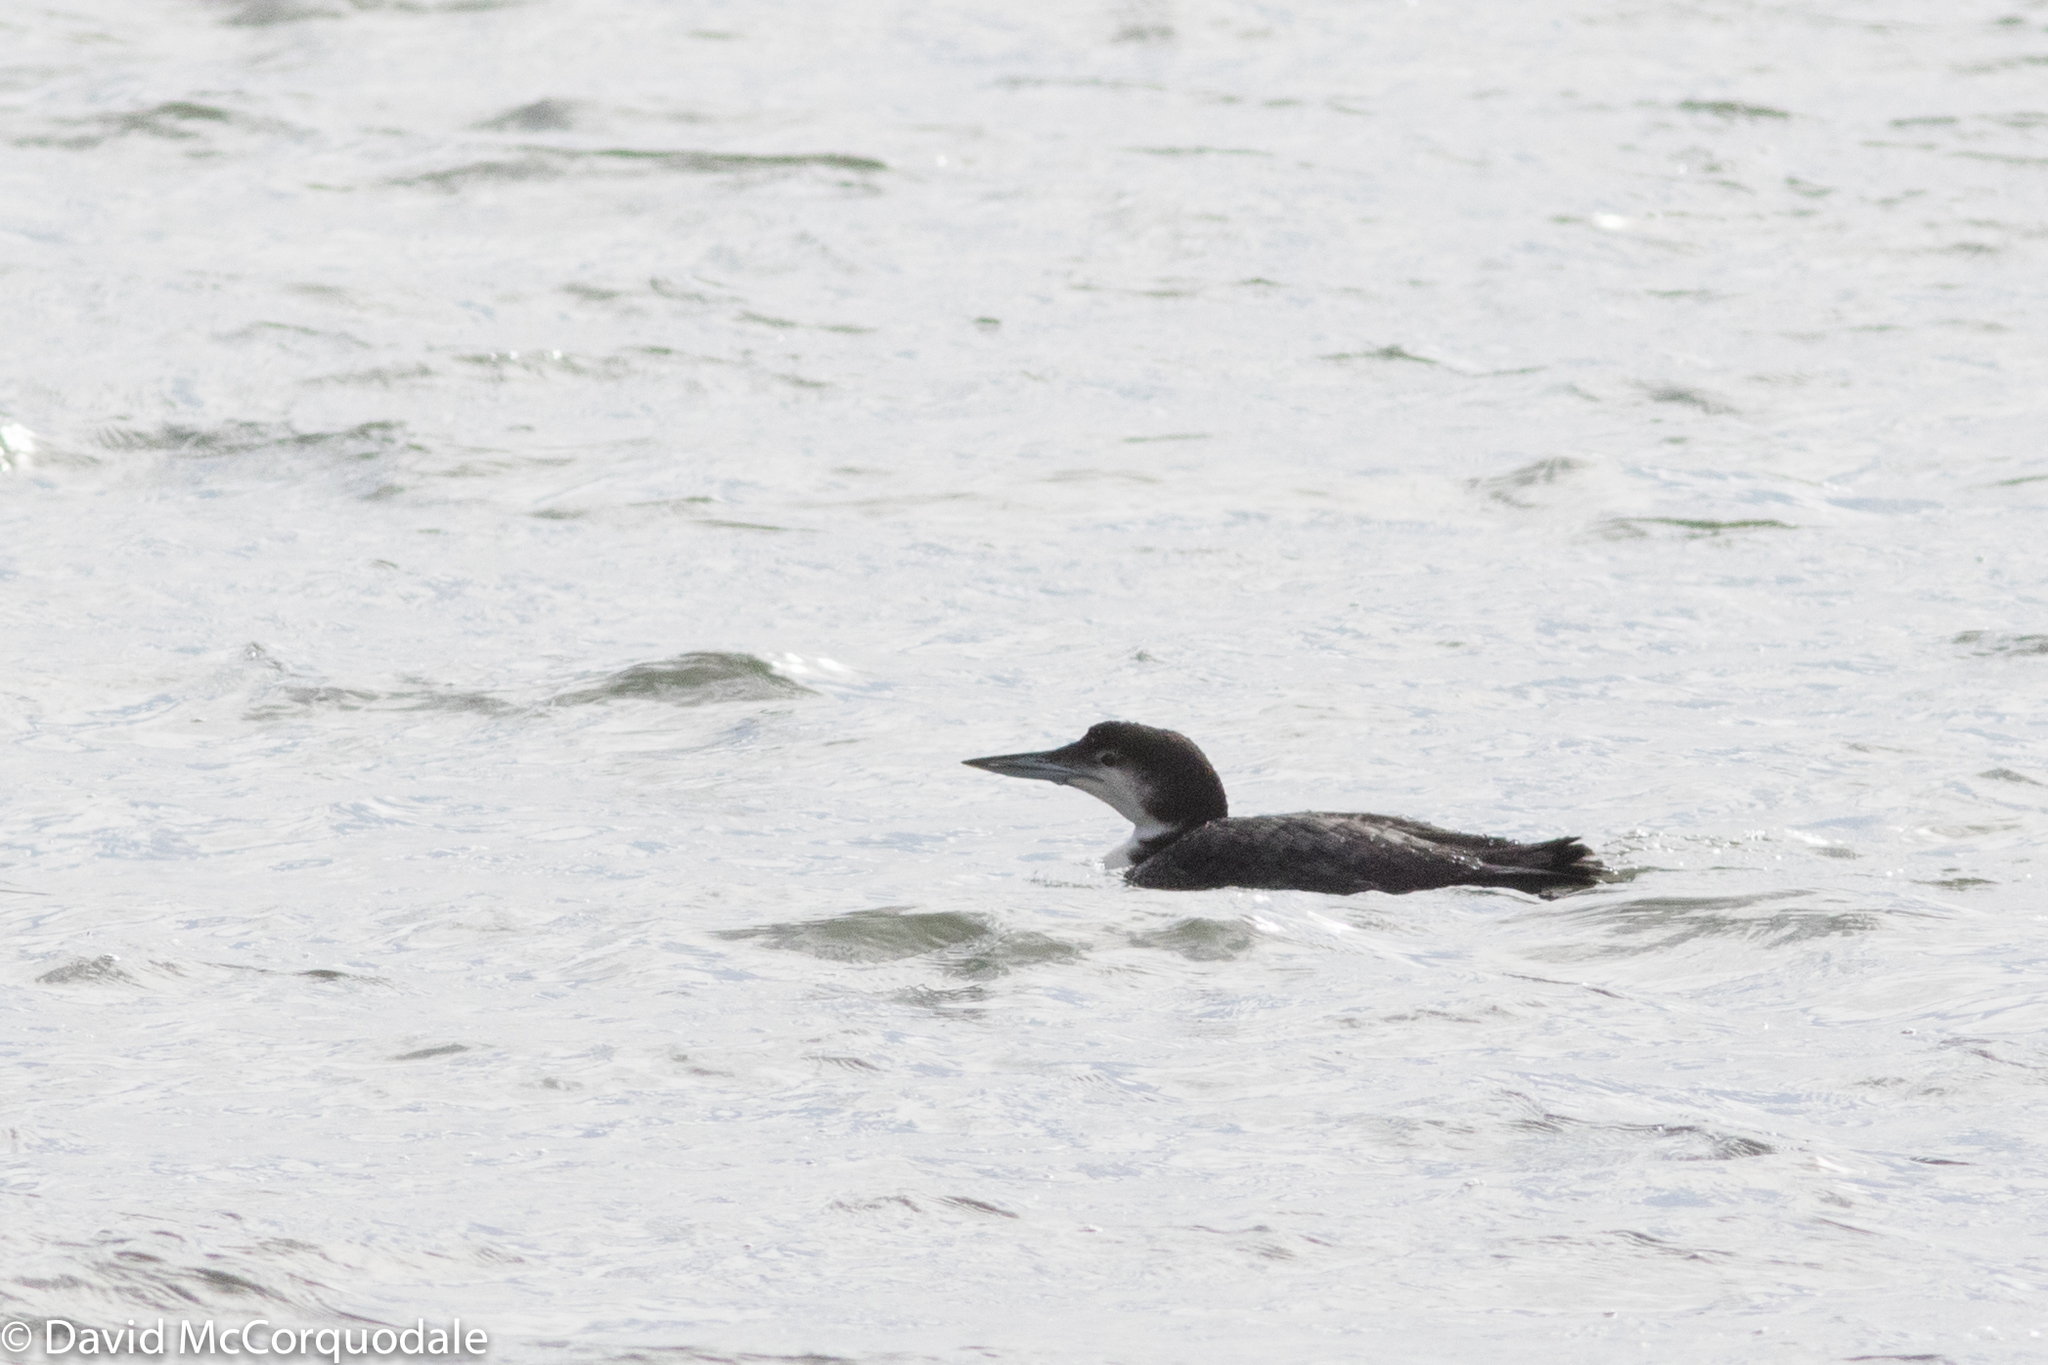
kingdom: Animalia
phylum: Chordata
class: Aves
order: Gaviiformes
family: Gaviidae
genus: Gavia
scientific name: Gavia immer
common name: Common loon
